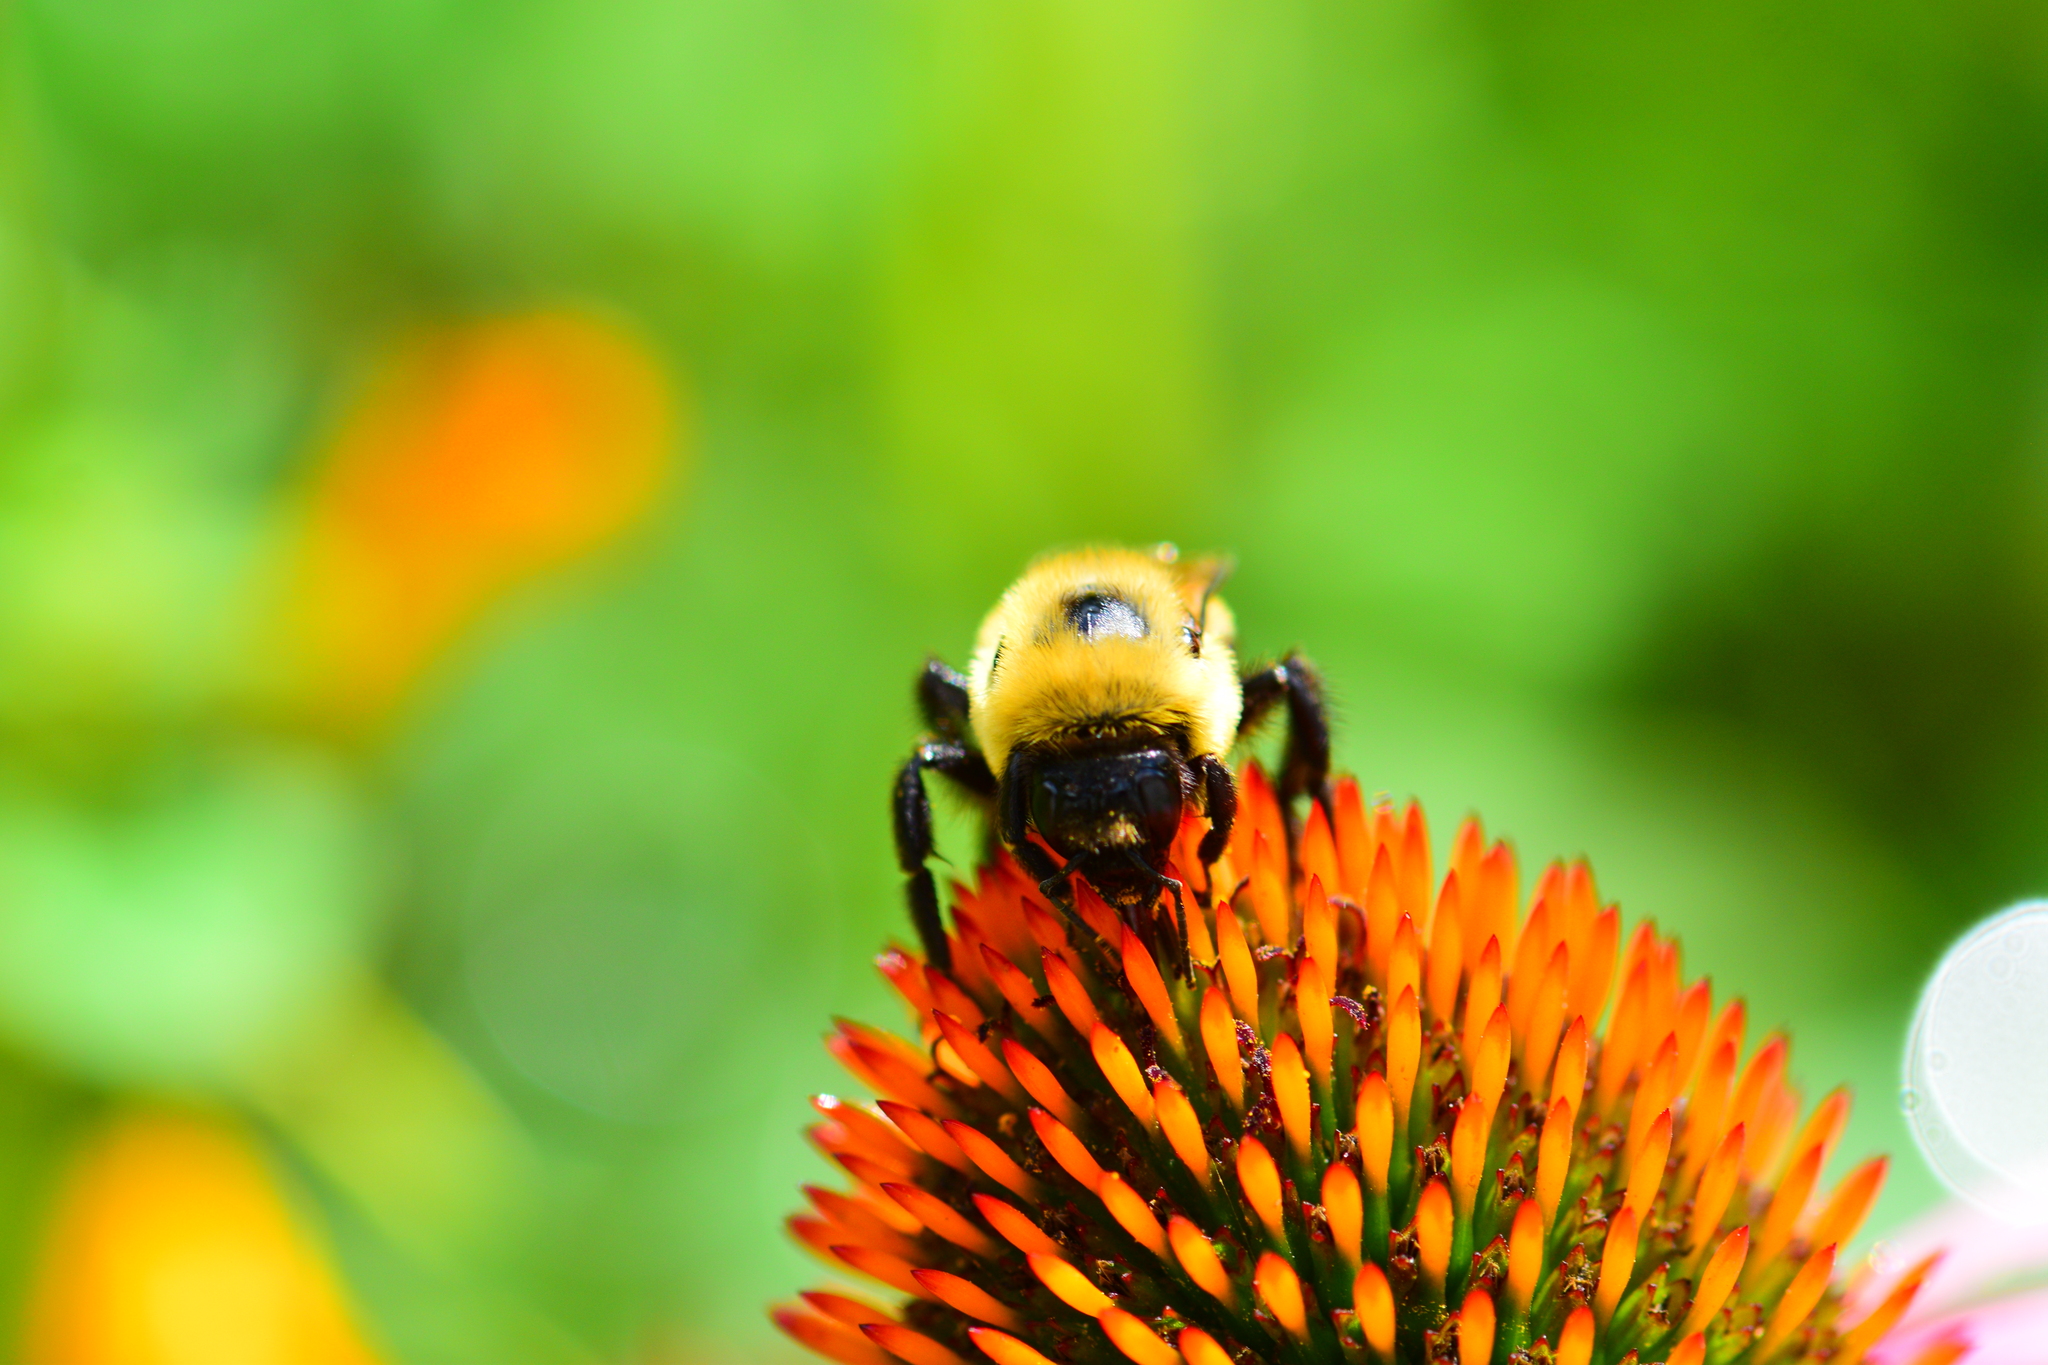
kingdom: Animalia
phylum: Arthropoda
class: Insecta
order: Hymenoptera
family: Apidae
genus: Bombus
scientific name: Bombus griseocollis
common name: Brown-belted bumble bee
